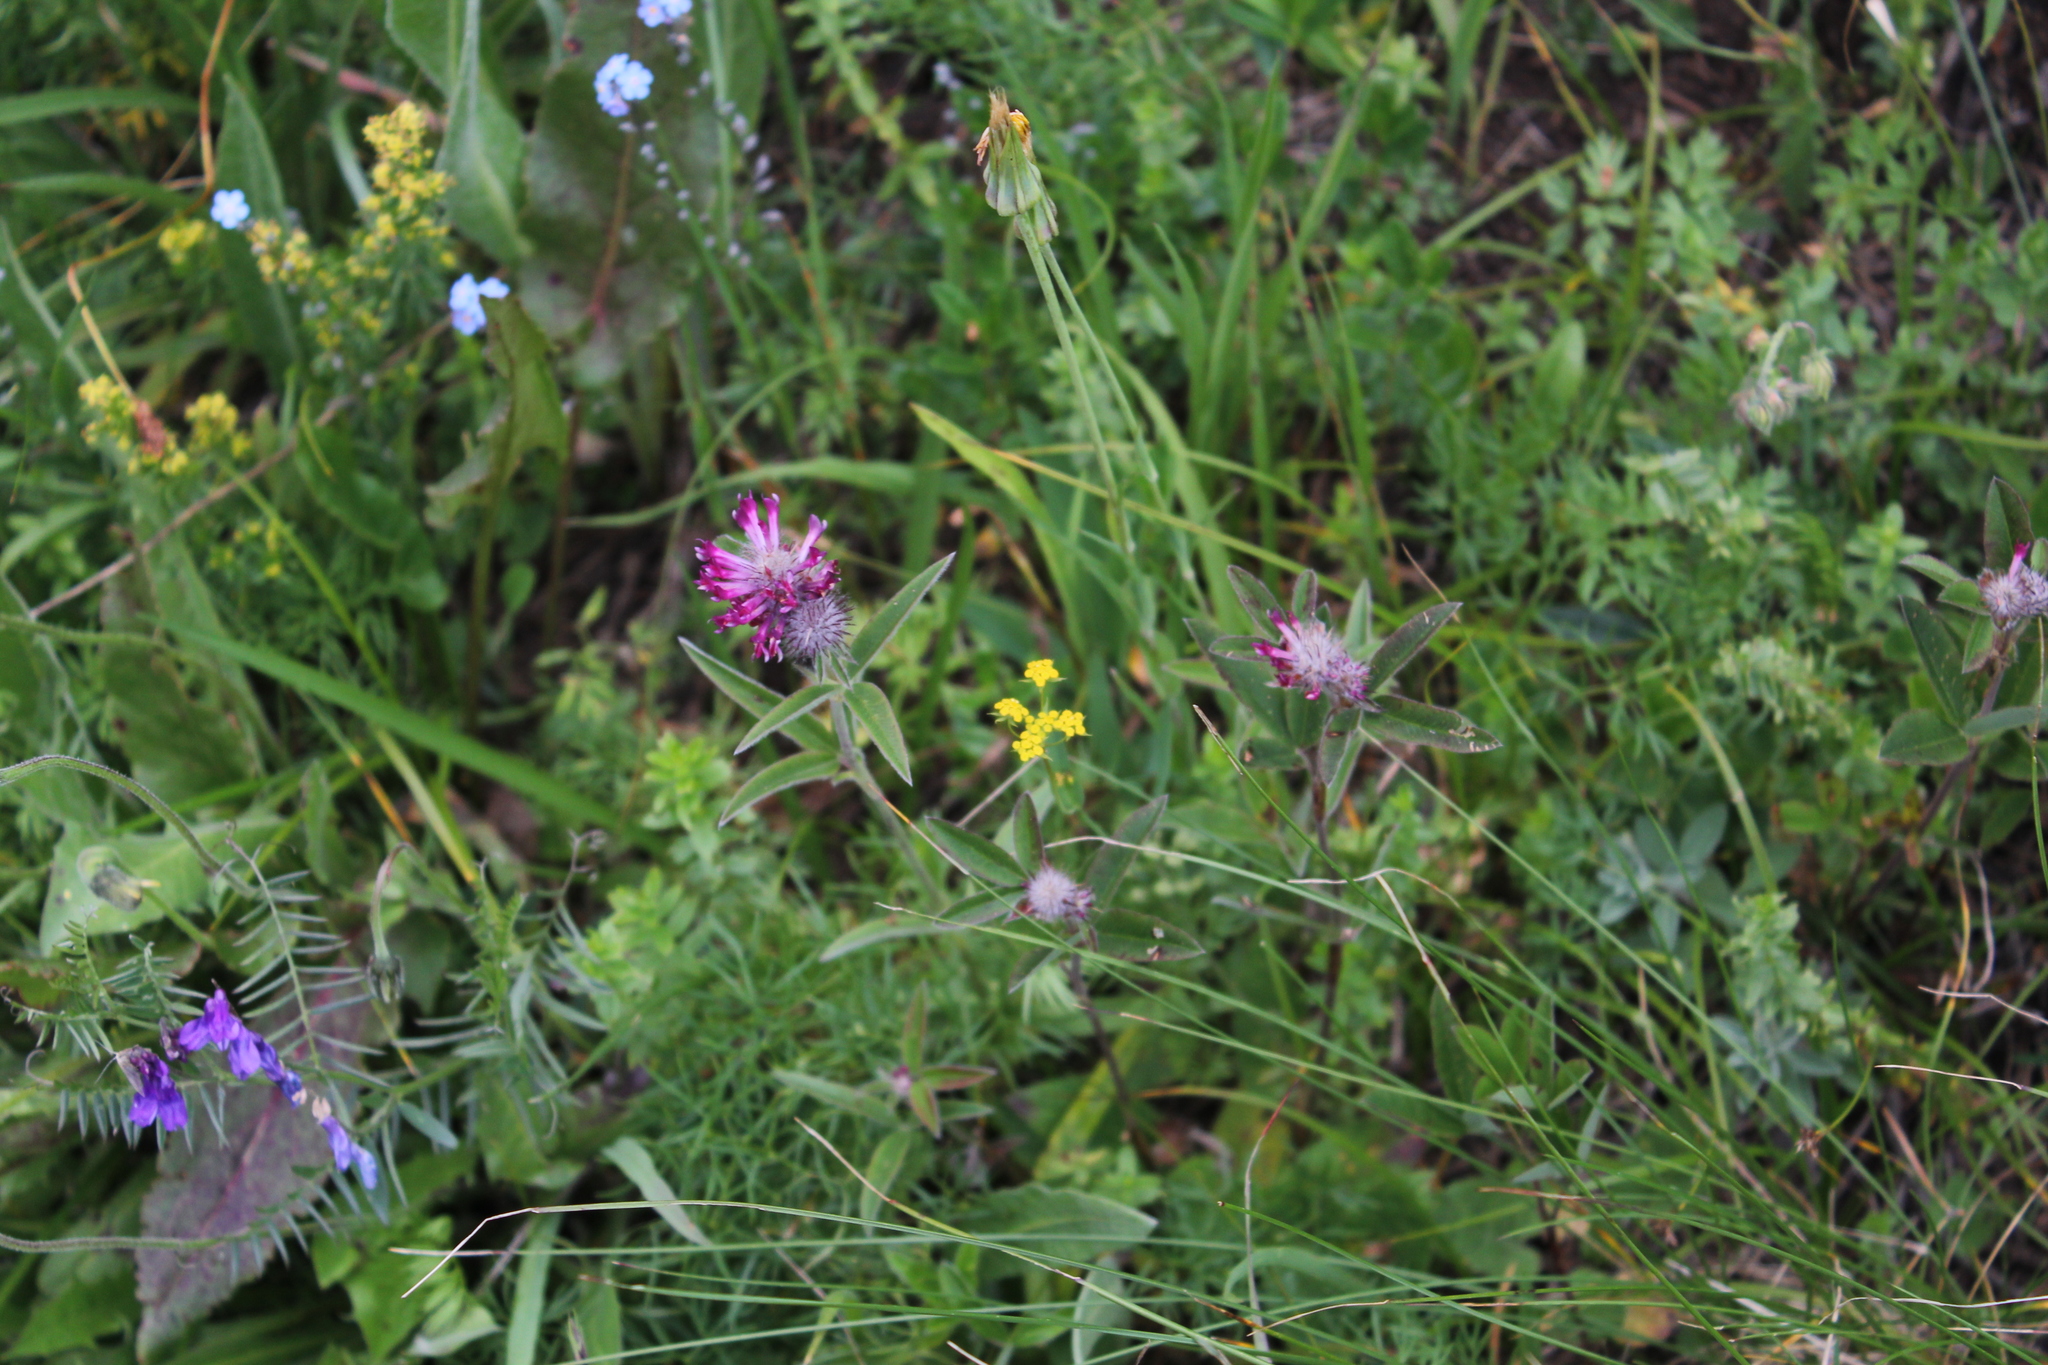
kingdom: Plantae
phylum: Tracheophyta
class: Magnoliopsida
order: Fabales
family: Fabaceae
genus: Trifolium
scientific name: Trifolium alpestre
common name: Owl-head clover
